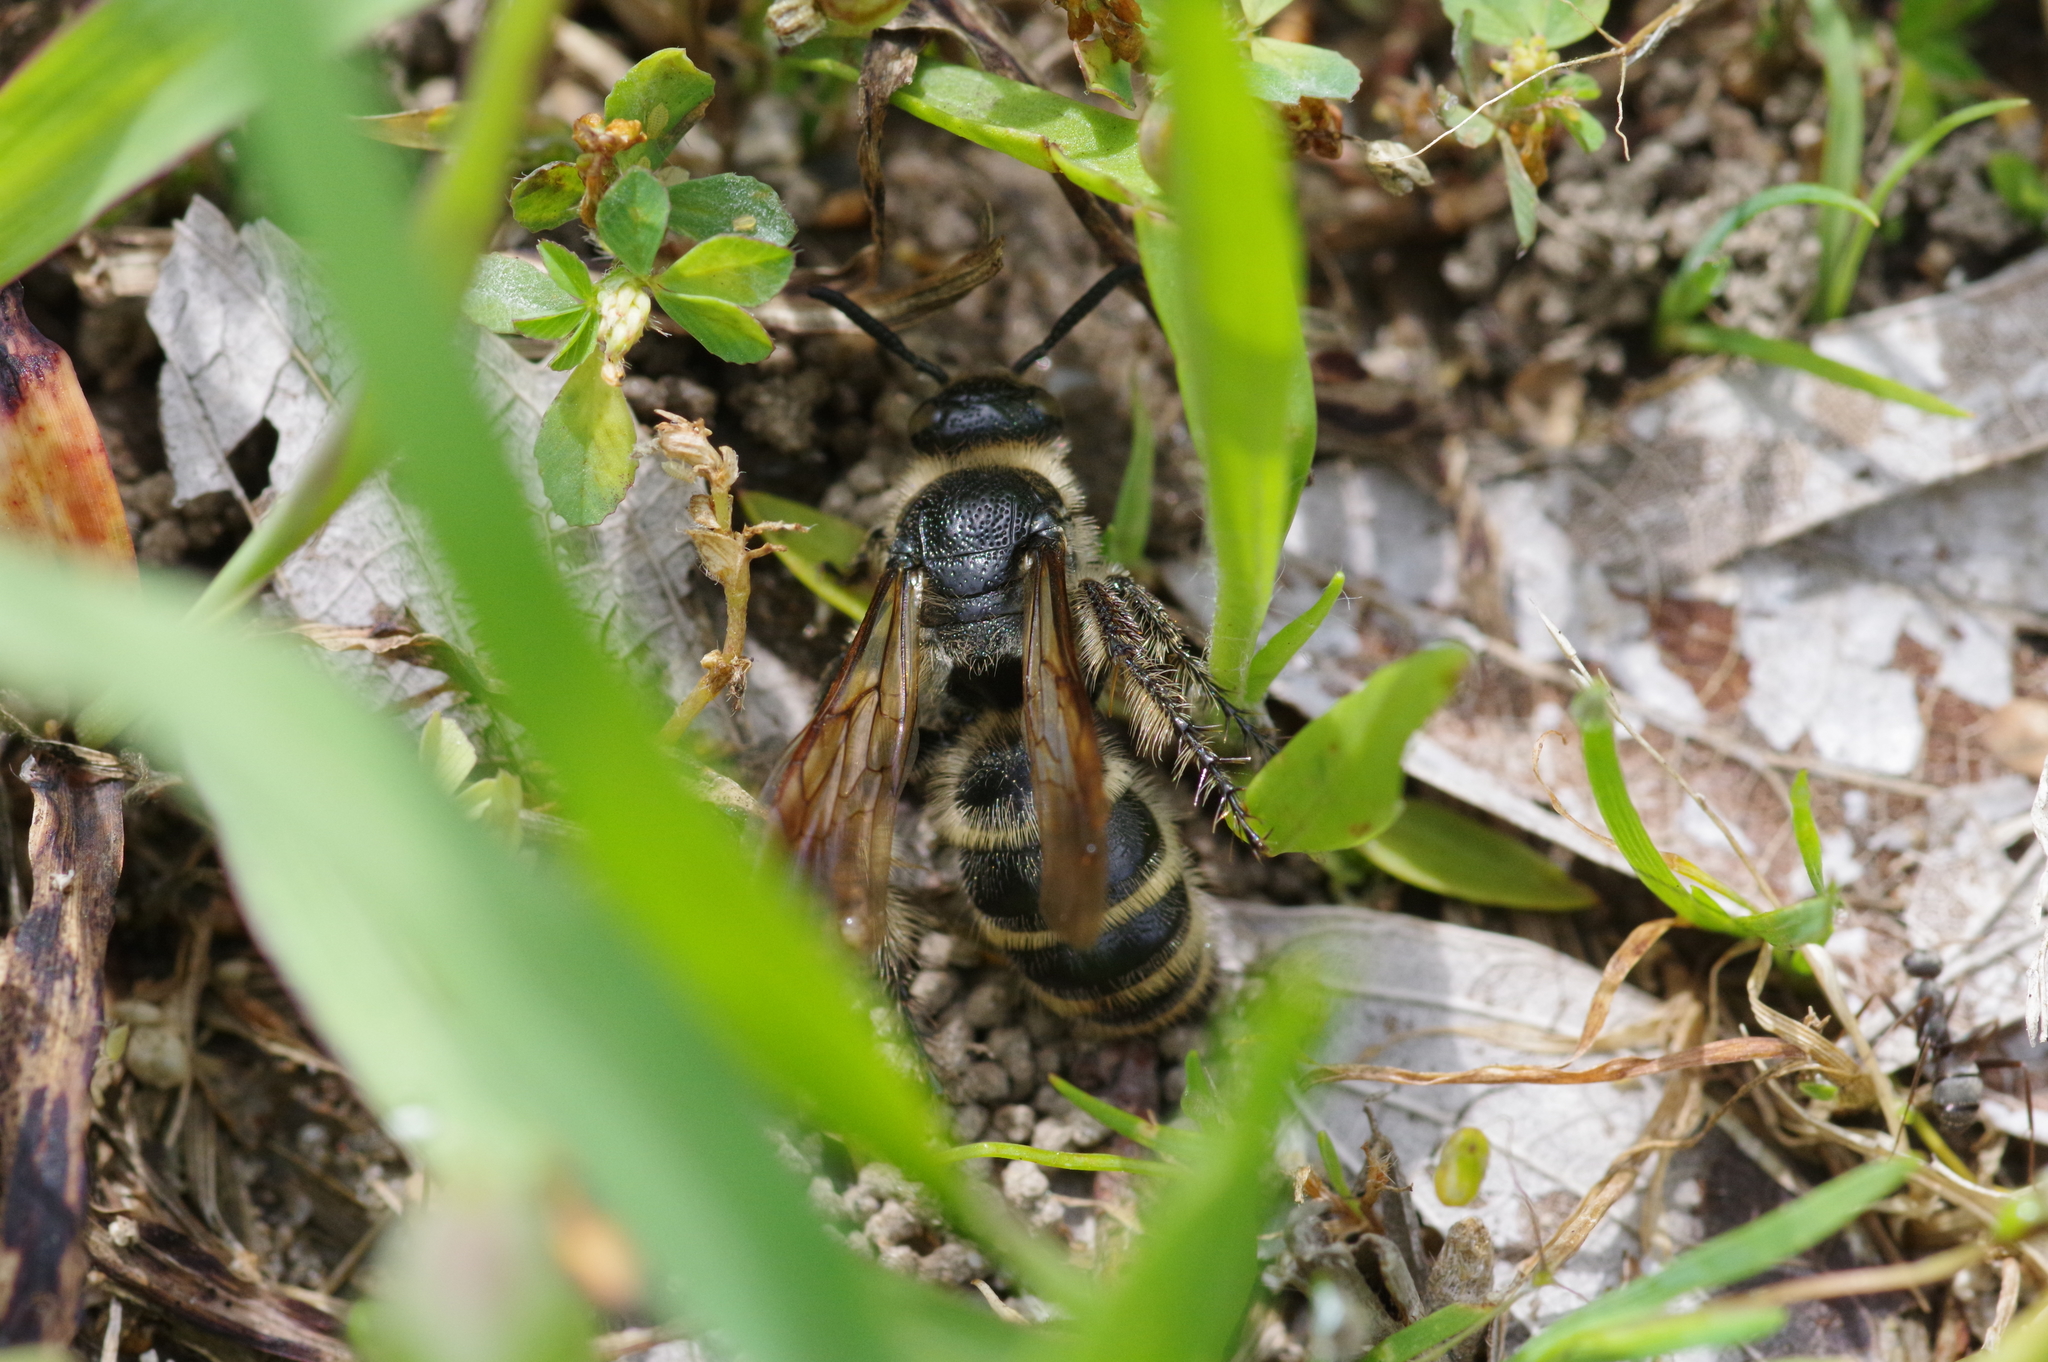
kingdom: Animalia
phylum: Arthropoda
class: Insecta
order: Hymenoptera
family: Scoliidae
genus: Campsomeris
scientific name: Campsomeris annulata
